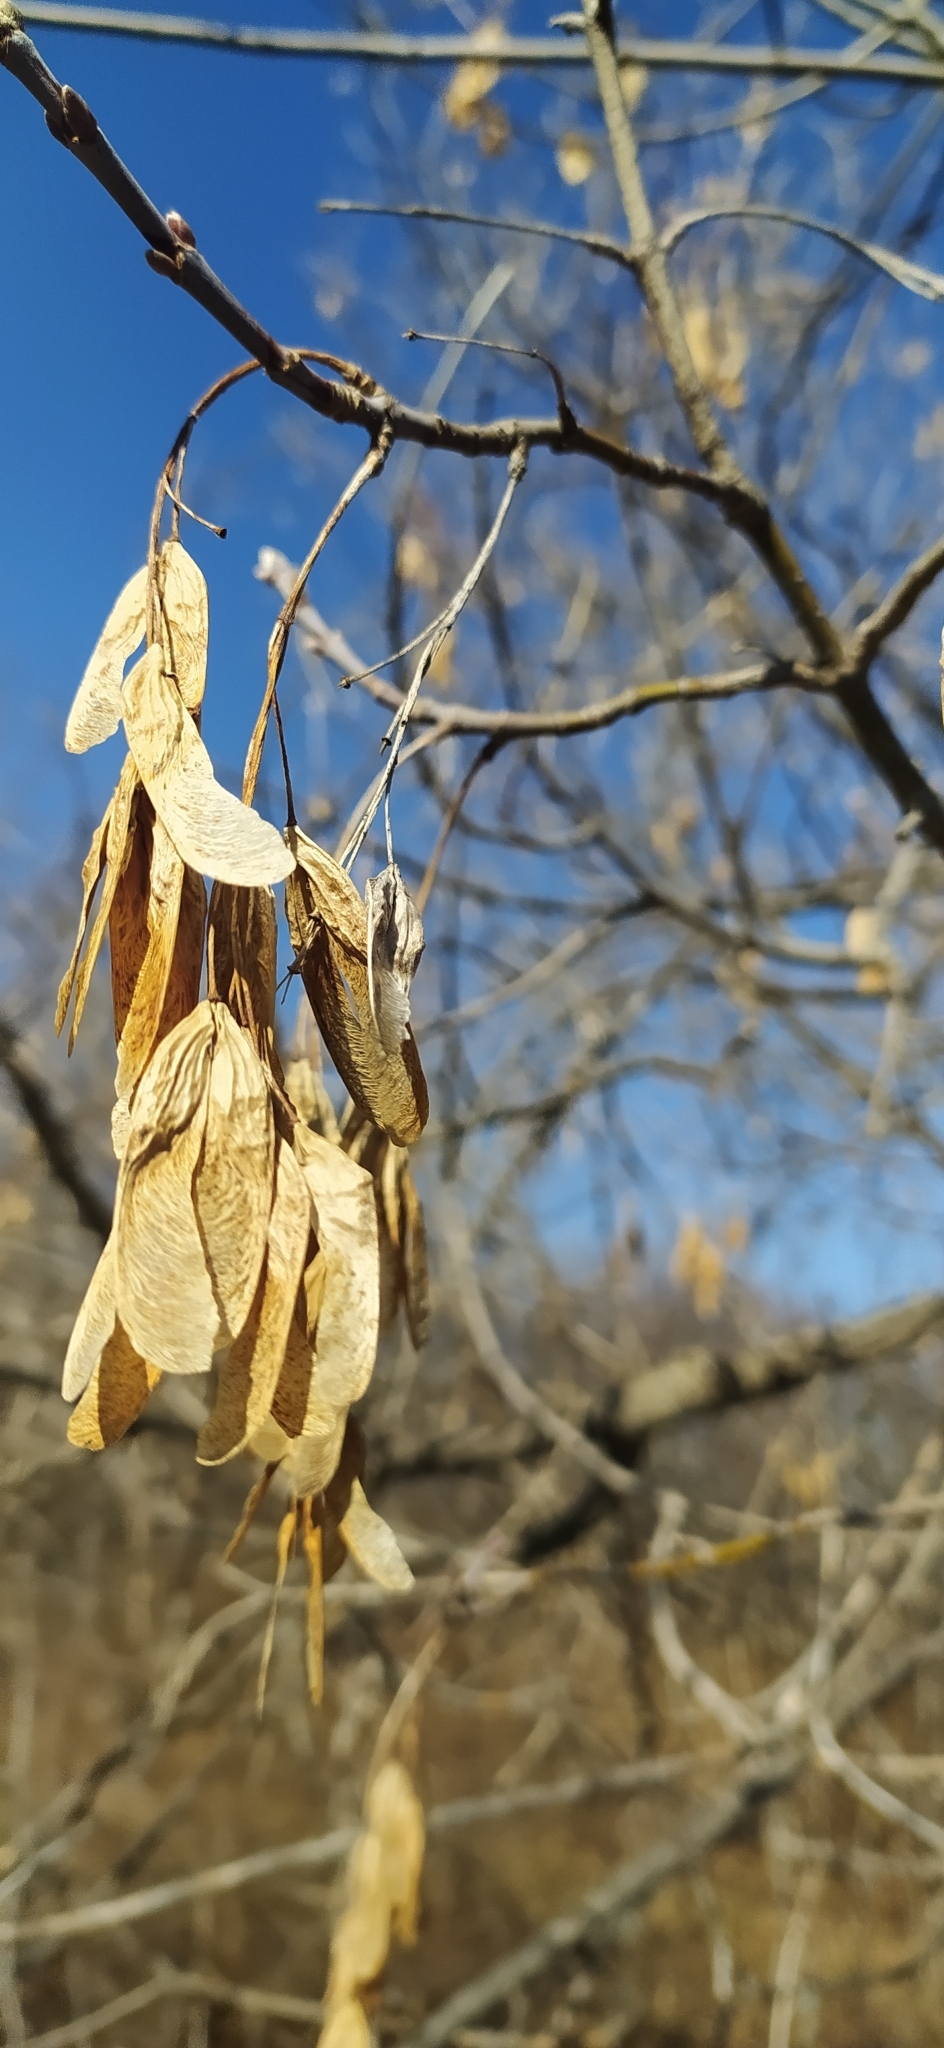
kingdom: Plantae
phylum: Tracheophyta
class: Magnoliopsida
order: Sapindales
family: Sapindaceae
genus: Acer
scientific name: Acer negundo
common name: Ashleaf maple
